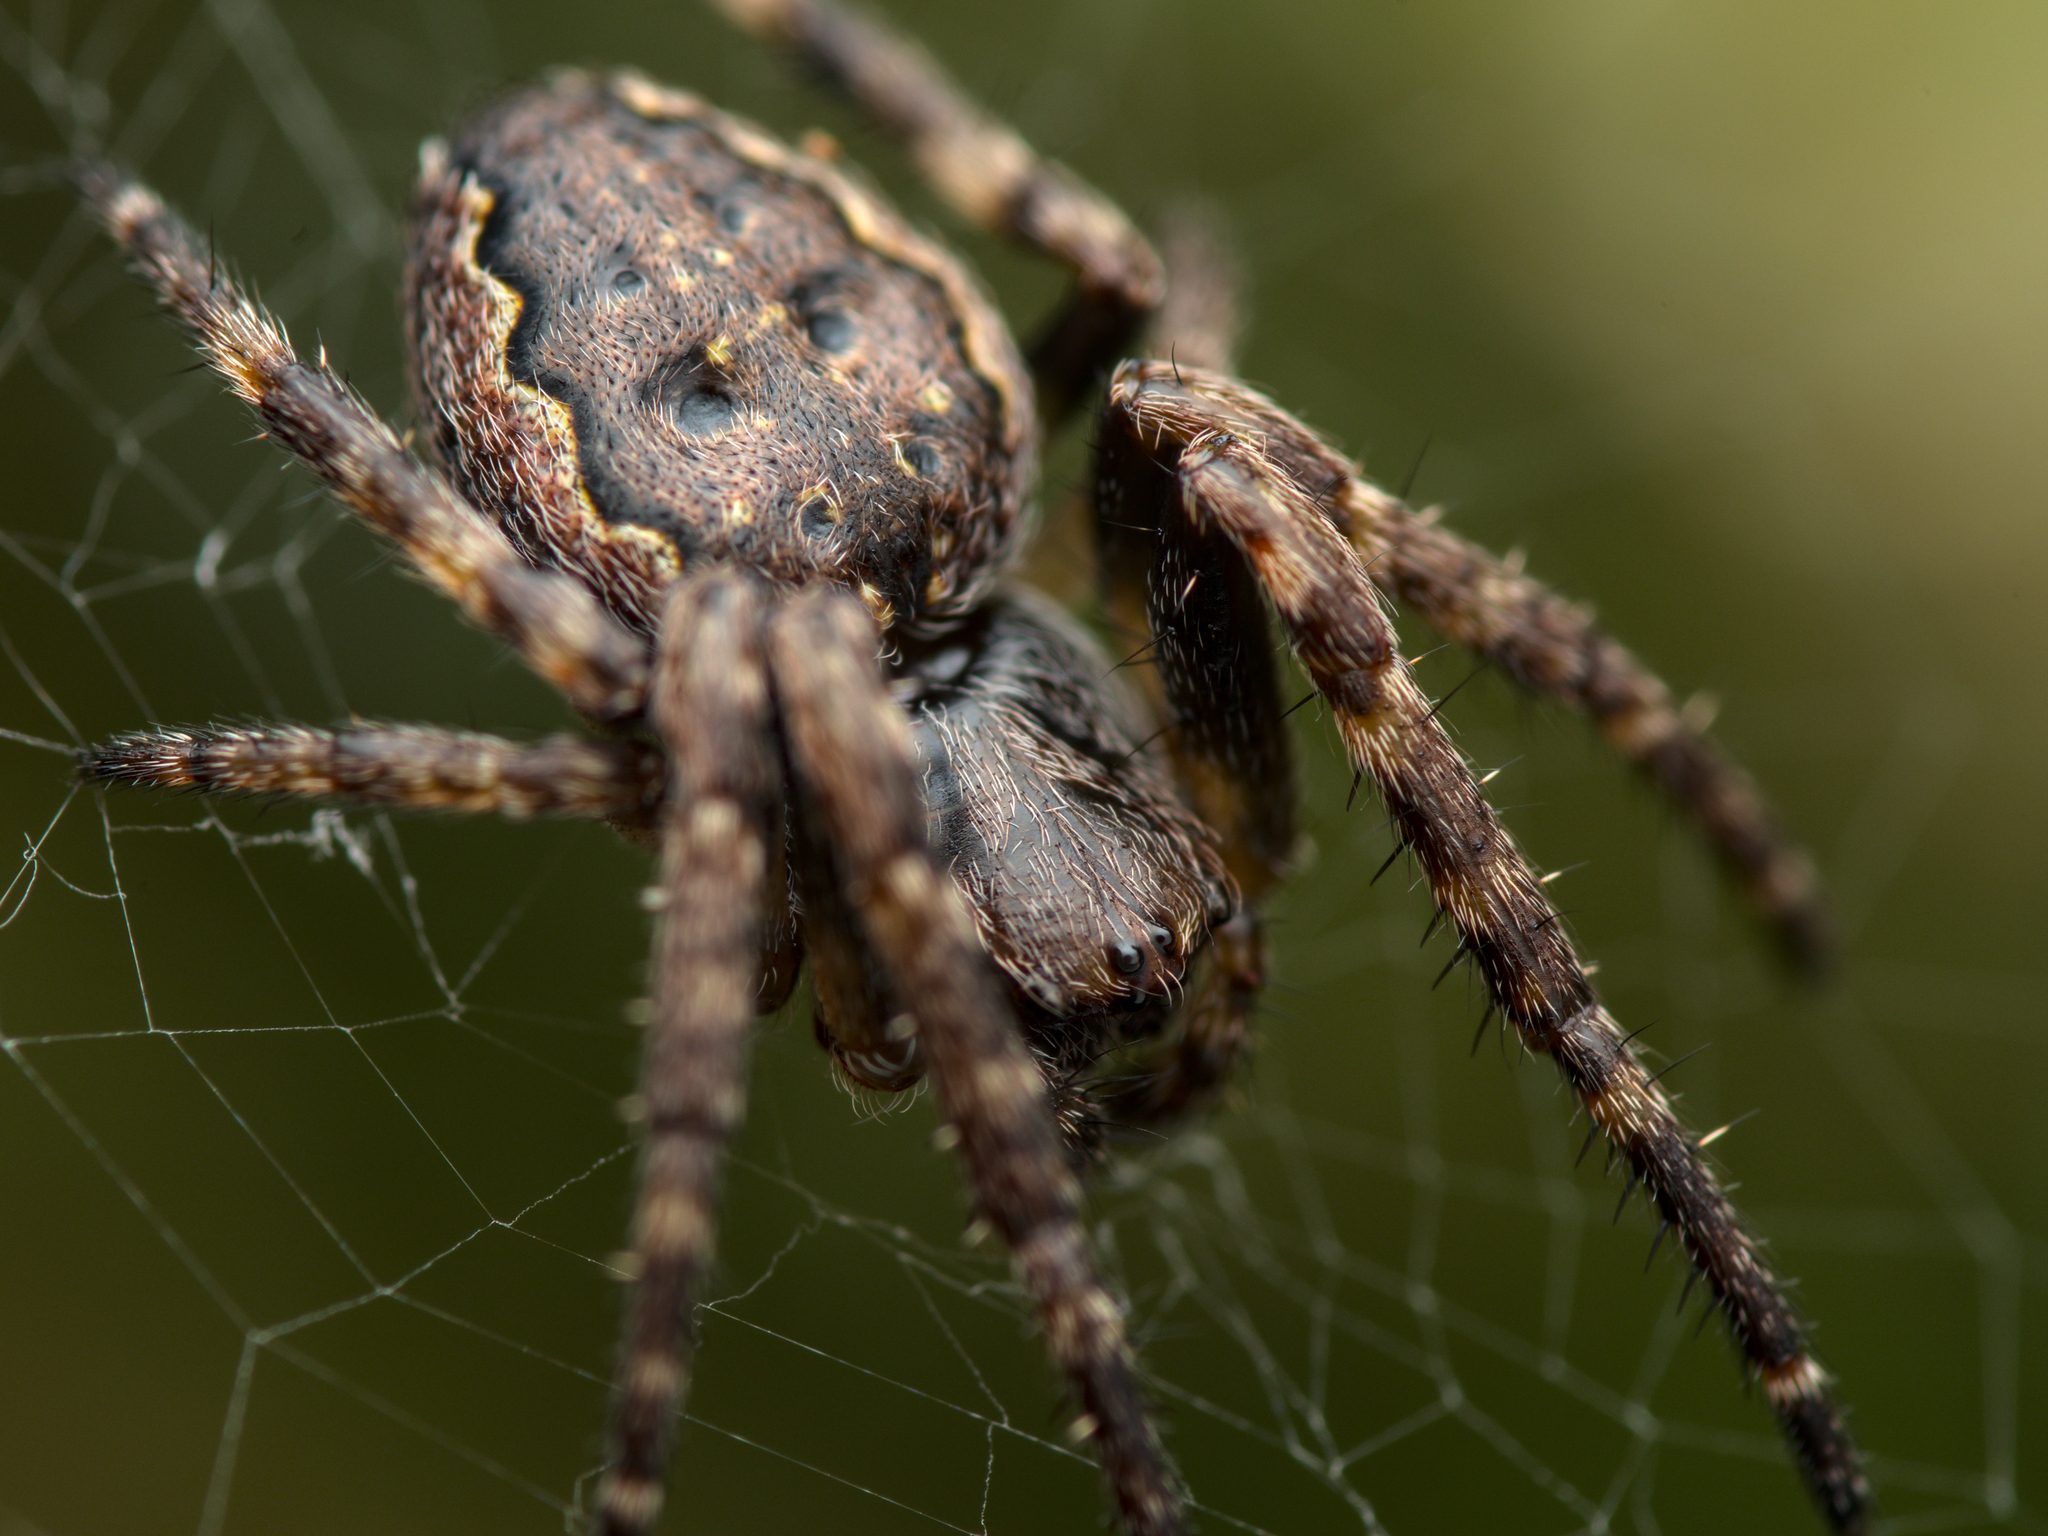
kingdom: Animalia
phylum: Arthropoda
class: Arachnida
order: Araneae
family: Araneidae
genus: Nuctenea
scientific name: Nuctenea umbratica
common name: Toad spider
